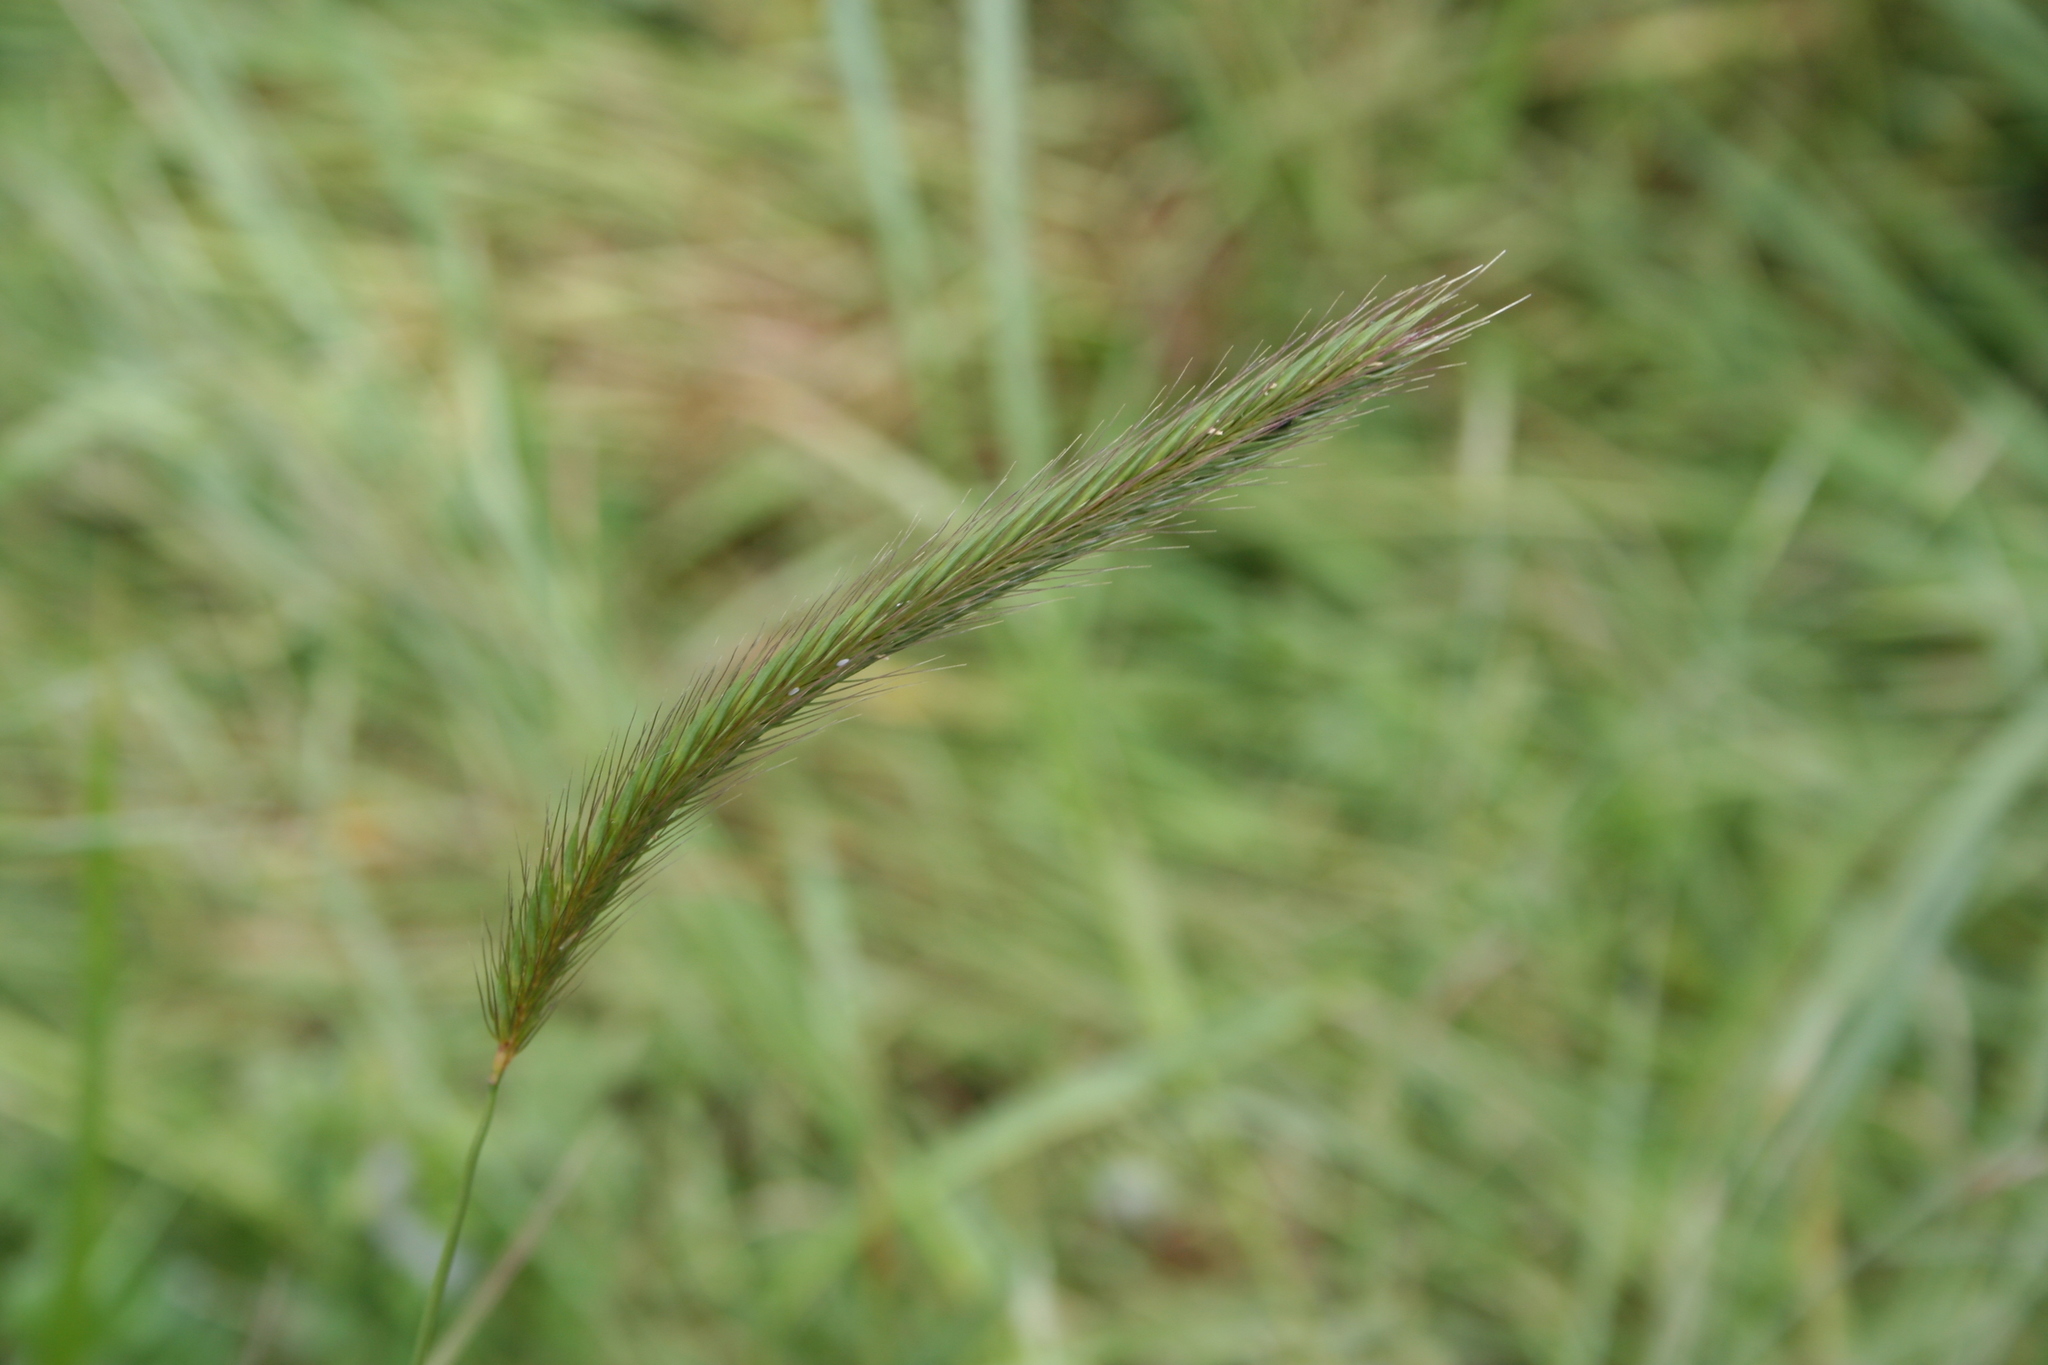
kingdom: Plantae
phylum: Tracheophyta
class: Liliopsida
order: Poales
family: Poaceae
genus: Hordeum
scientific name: Hordeum brachyantherum
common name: Meadow barley
